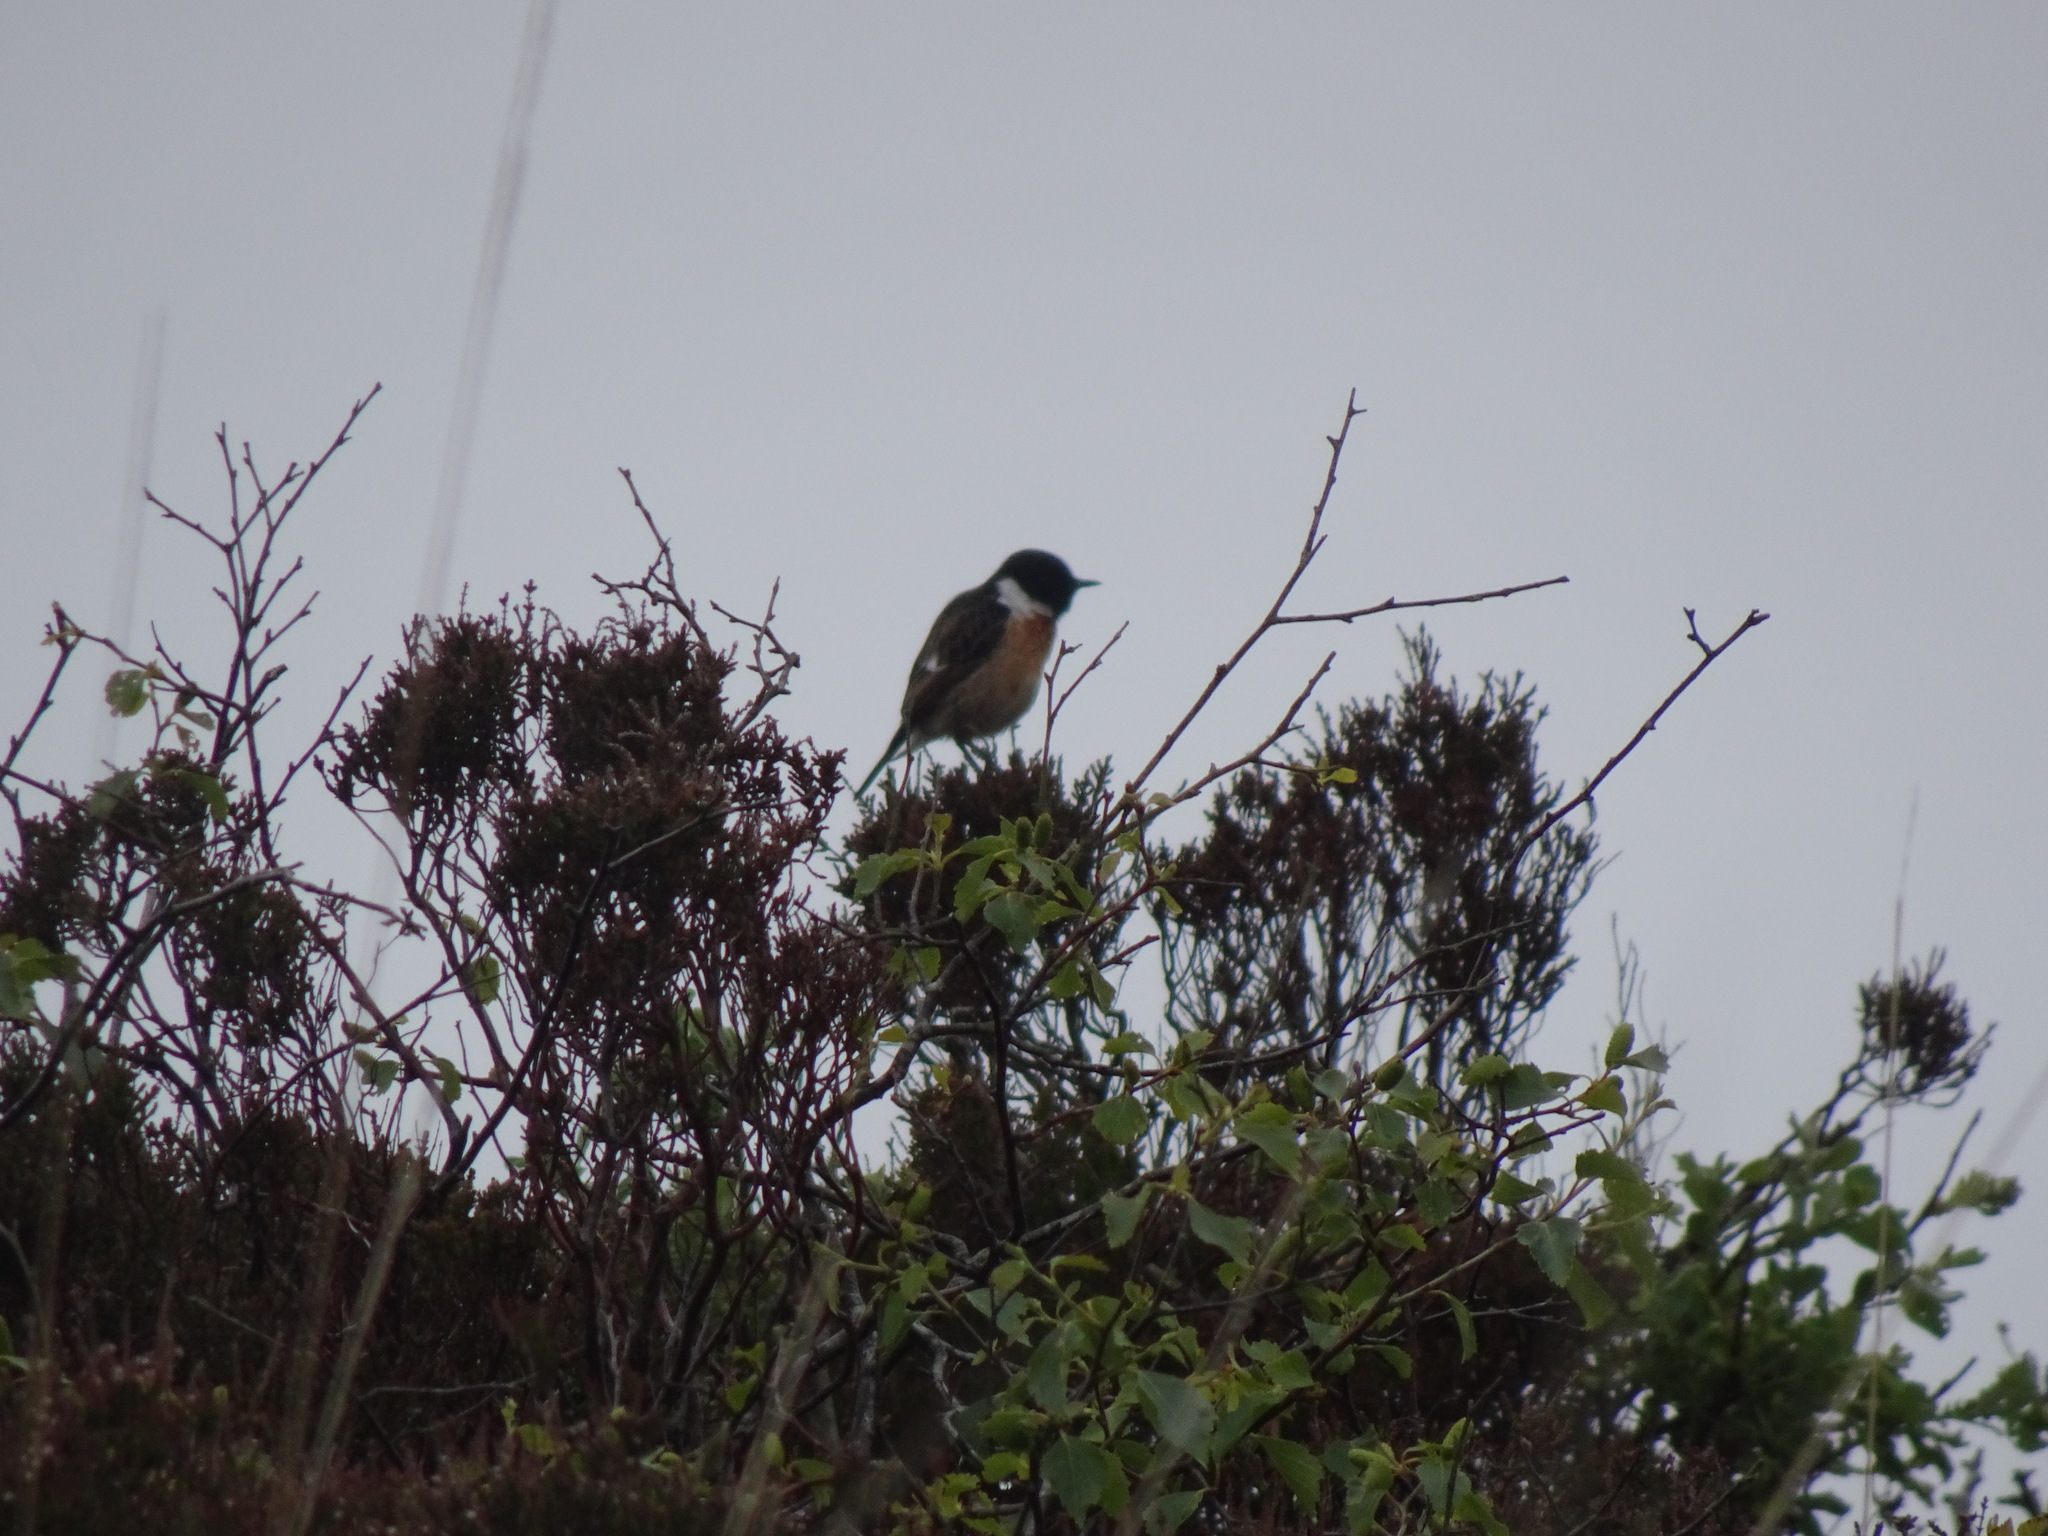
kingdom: Animalia
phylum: Chordata
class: Aves
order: Passeriformes
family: Muscicapidae
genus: Saxicola
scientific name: Saxicola rubicola
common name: European stonechat
